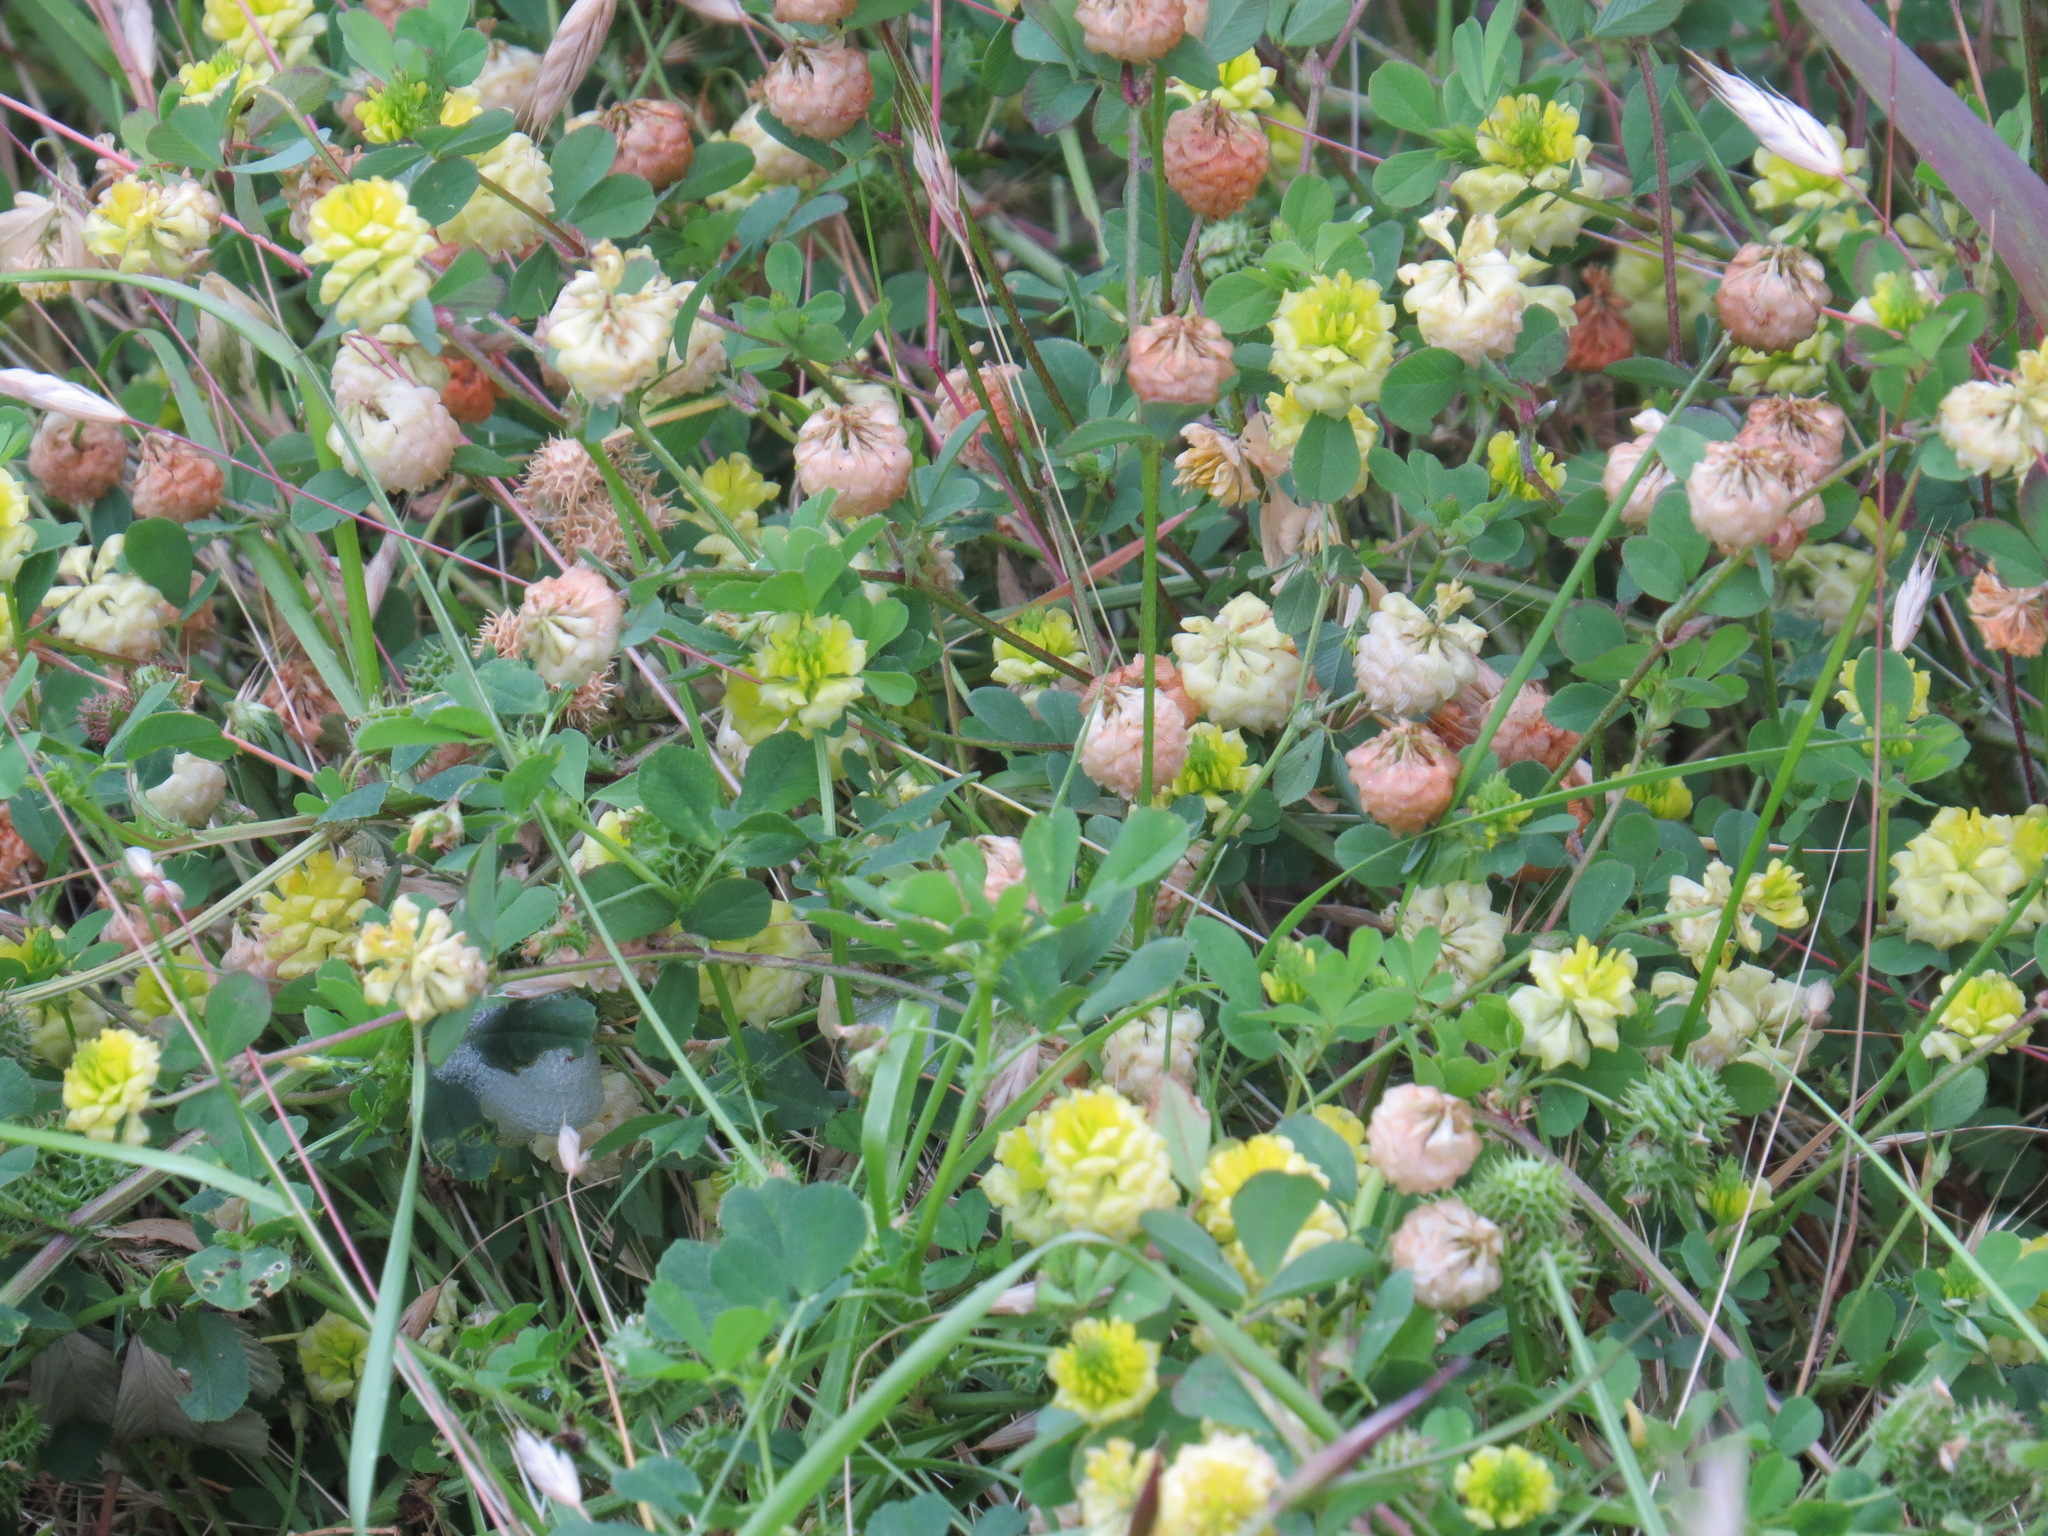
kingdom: Plantae
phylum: Tracheophyta
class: Magnoliopsida
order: Fabales
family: Fabaceae
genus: Trifolium
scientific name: Trifolium campestre
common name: Field clover
